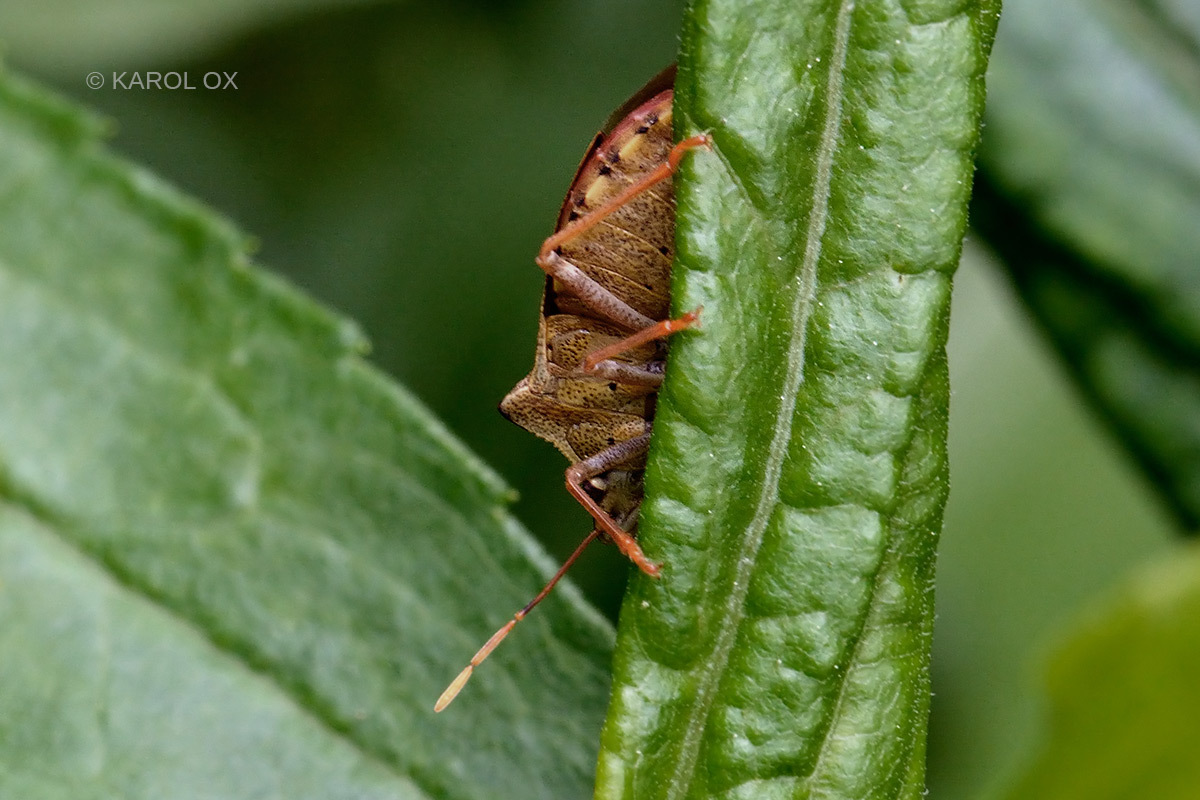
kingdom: Animalia
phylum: Arthropoda
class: Insecta
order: Hemiptera
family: Pentatomidae
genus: Arma
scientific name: Arma custos
